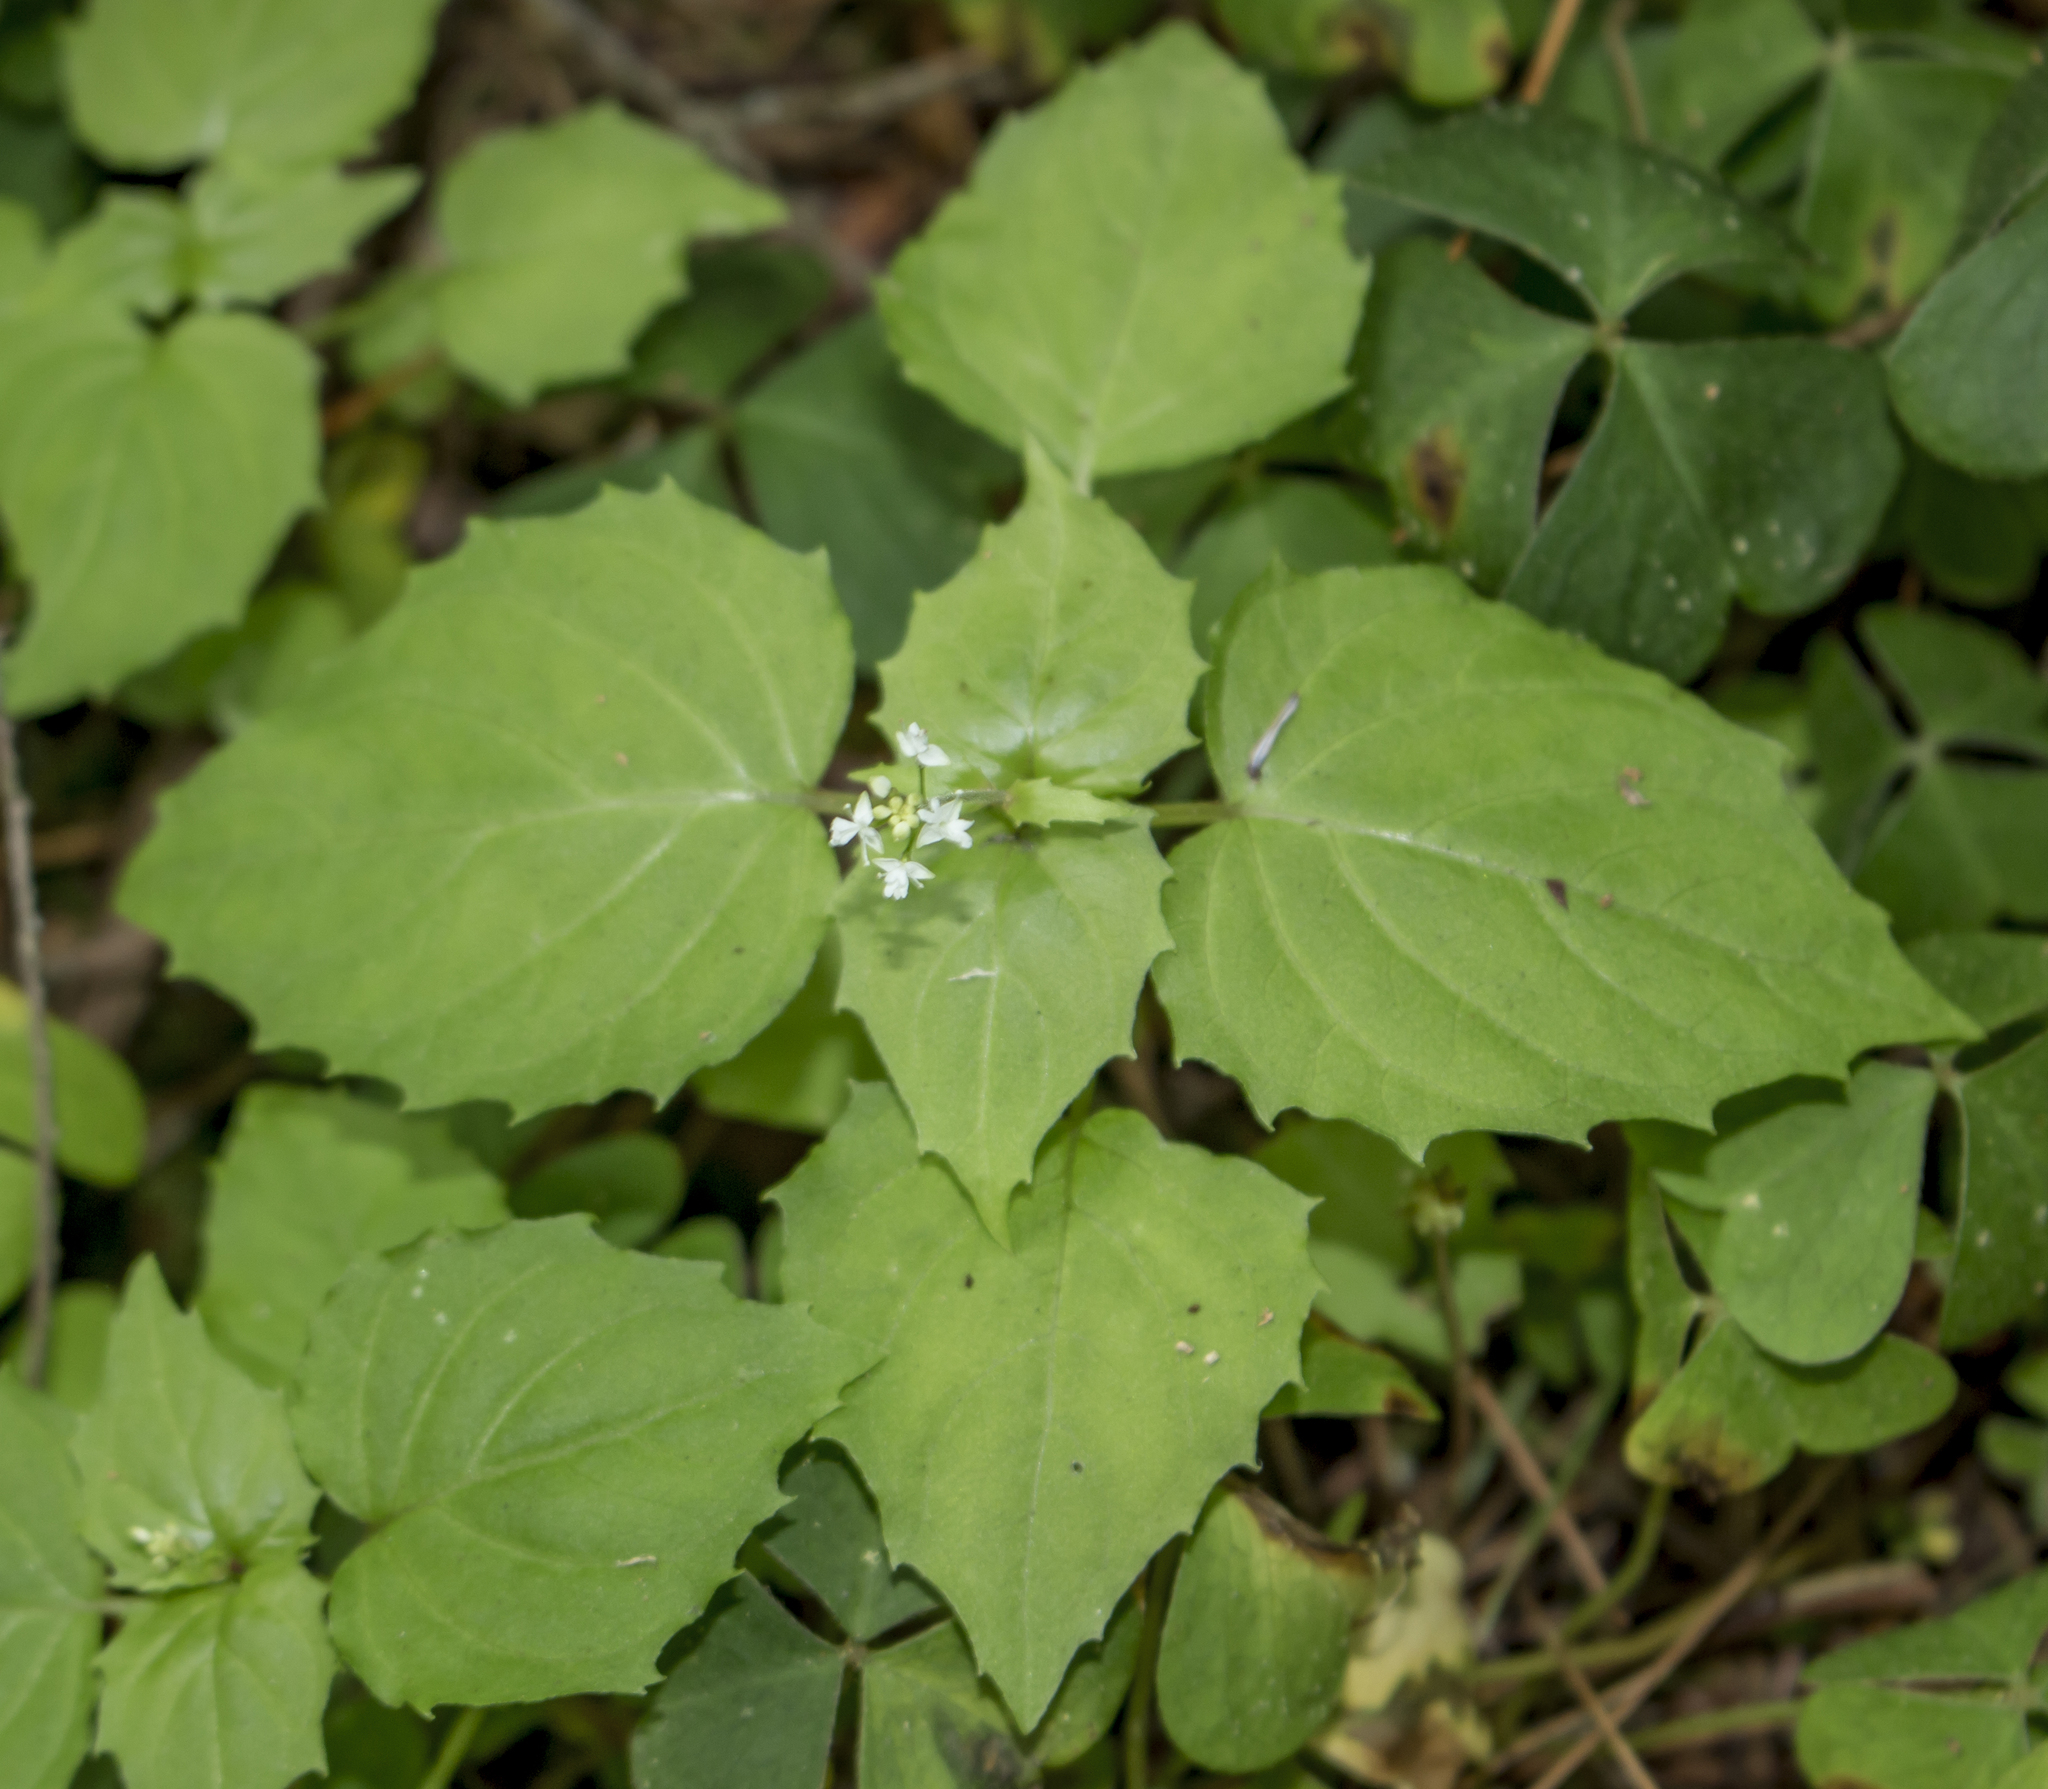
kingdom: Plantae
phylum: Tracheophyta
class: Magnoliopsida
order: Myrtales
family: Onagraceae
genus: Circaea
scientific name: Circaea alpina
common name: Alpine enchanter's-nightshade
